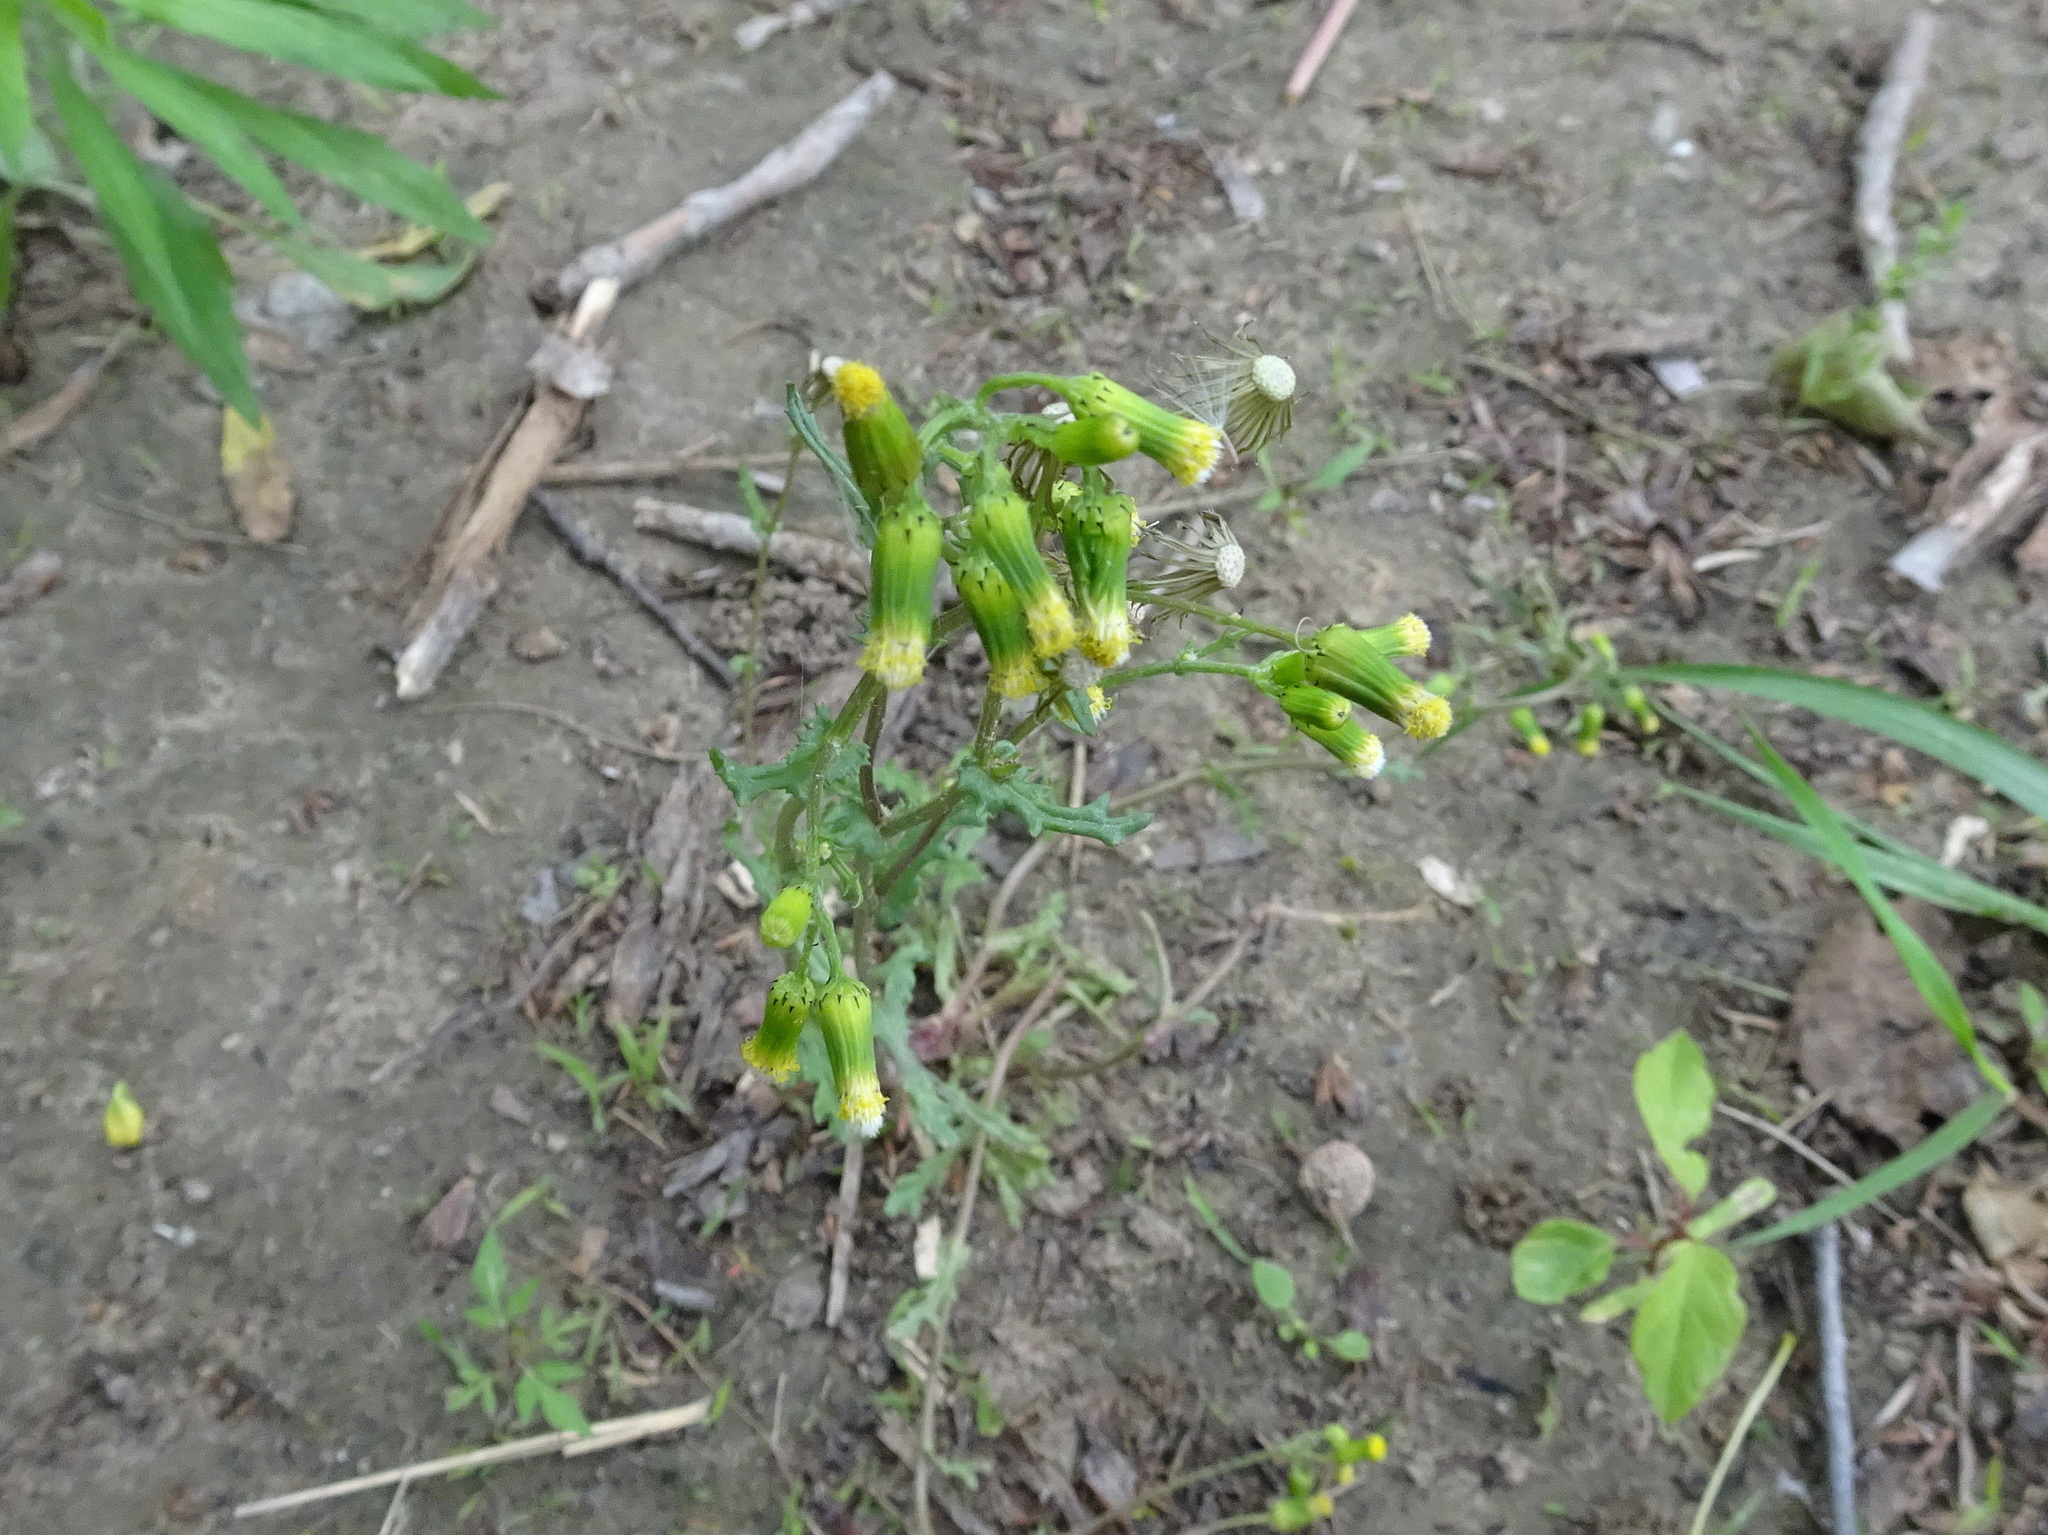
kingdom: Plantae
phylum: Tracheophyta
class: Magnoliopsida
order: Asterales
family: Asteraceae
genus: Senecio
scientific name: Senecio vulgaris
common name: Old-man-in-the-spring
